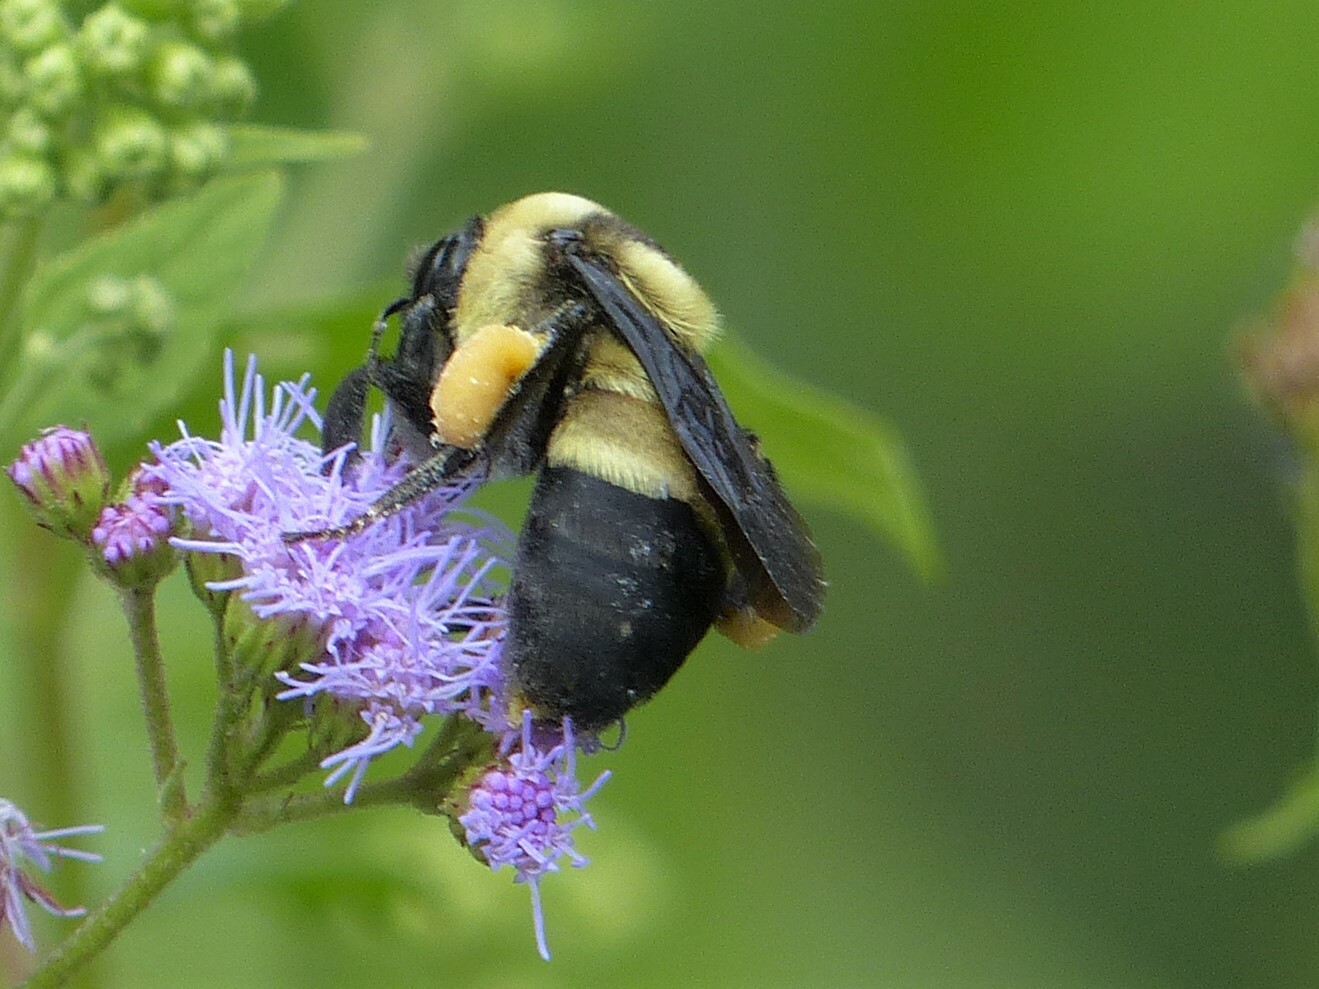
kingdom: Animalia
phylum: Arthropoda
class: Insecta
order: Hymenoptera
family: Apidae
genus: Bombus
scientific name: Bombus fraternus
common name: Southern plains bumble bee
